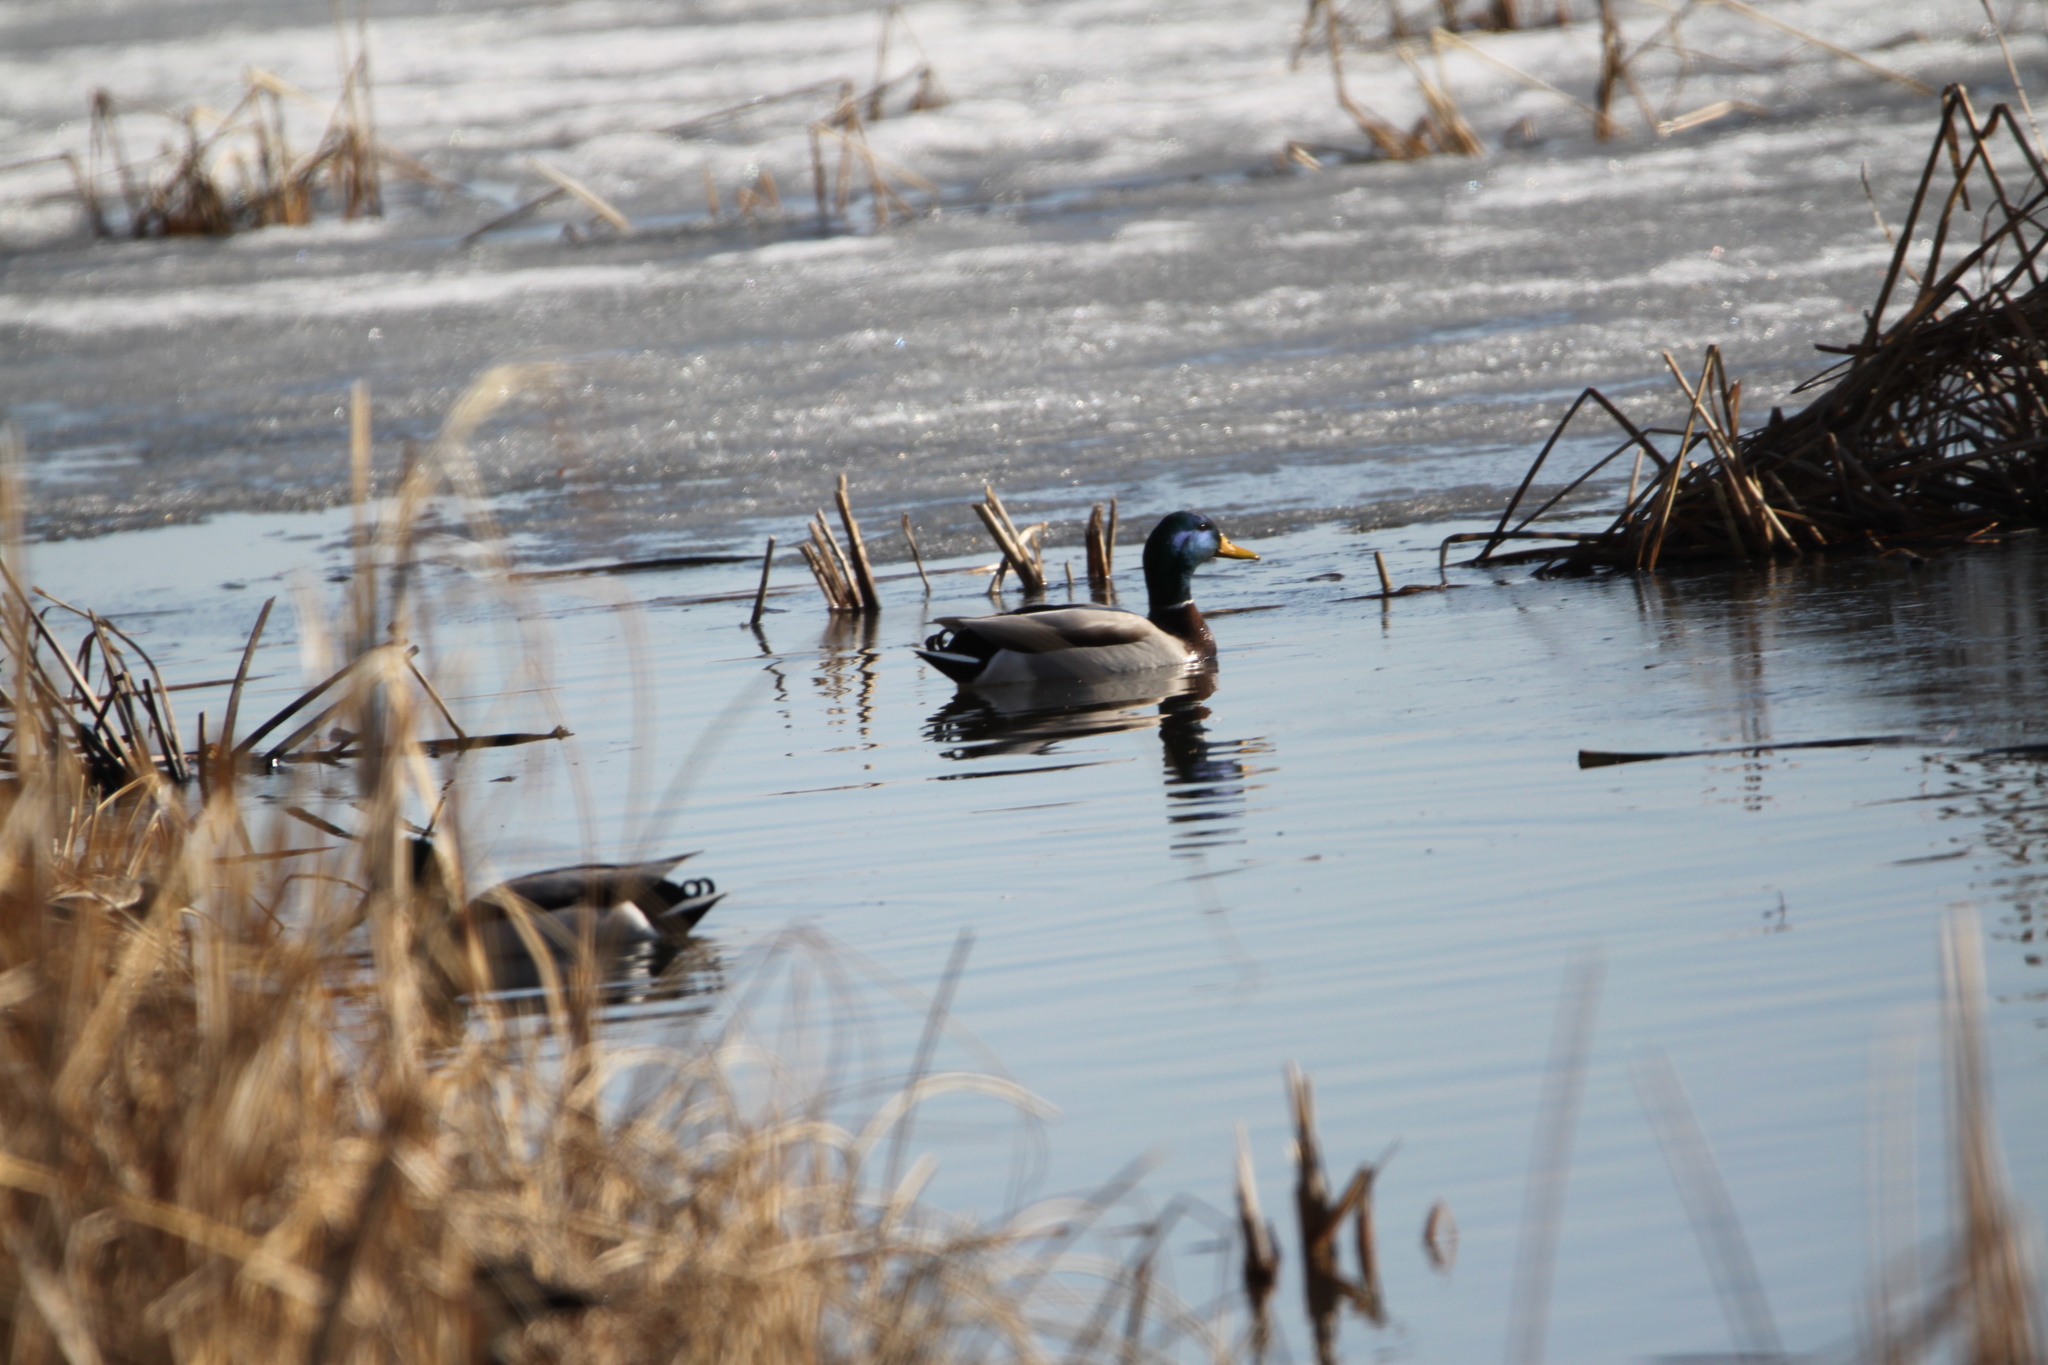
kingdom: Animalia
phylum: Chordata
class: Aves
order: Anseriformes
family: Anatidae
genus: Anas
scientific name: Anas platyrhynchos
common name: Mallard
